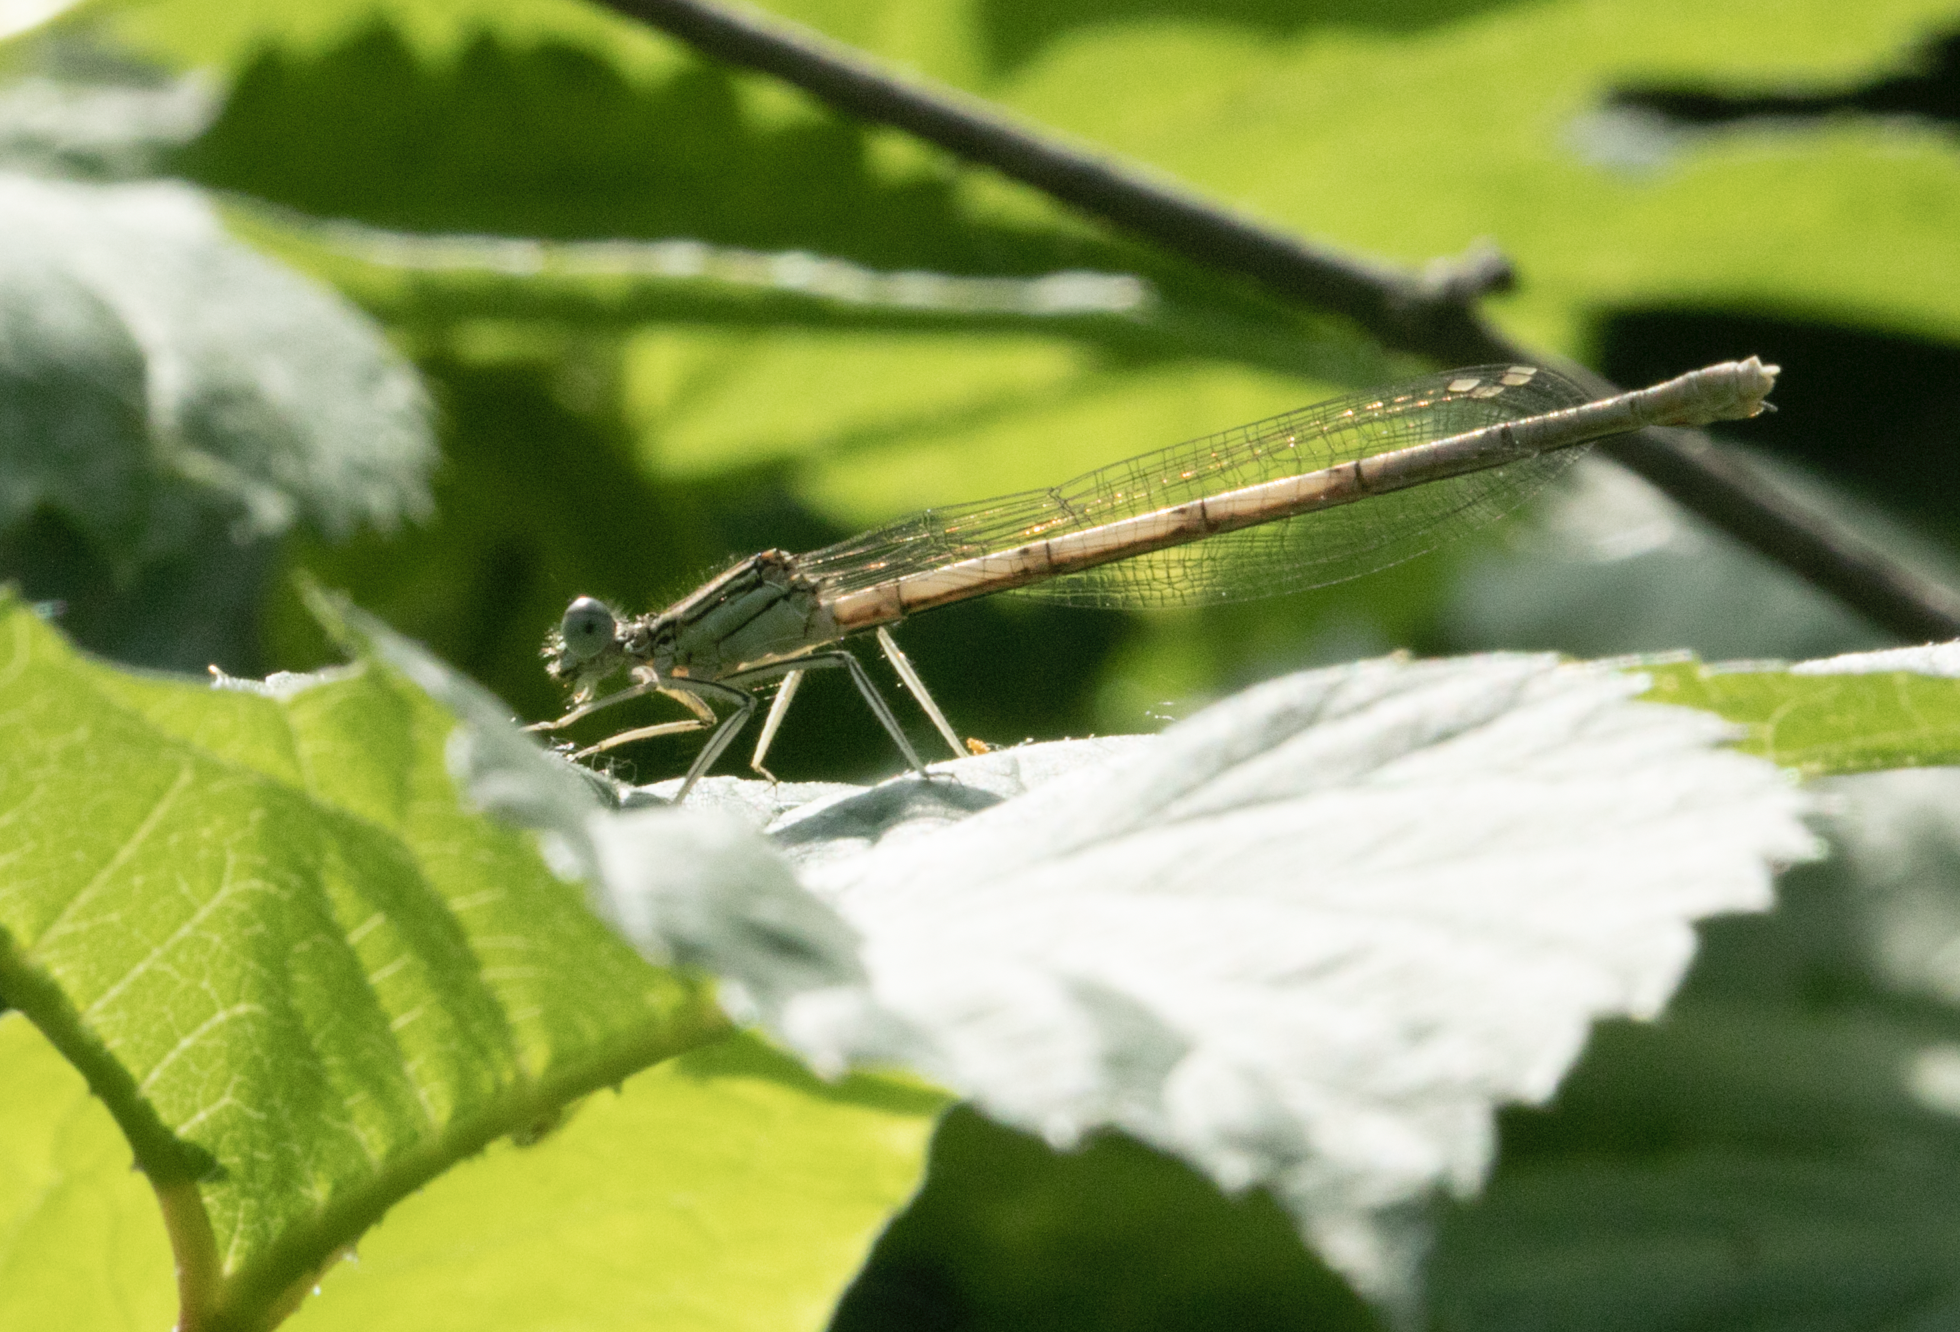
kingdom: Animalia
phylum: Arthropoda
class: Insecta
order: Odonata
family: Platycnemididae
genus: Platycnemis
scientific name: Platycnemis pennipes
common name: White-legged damselfly
